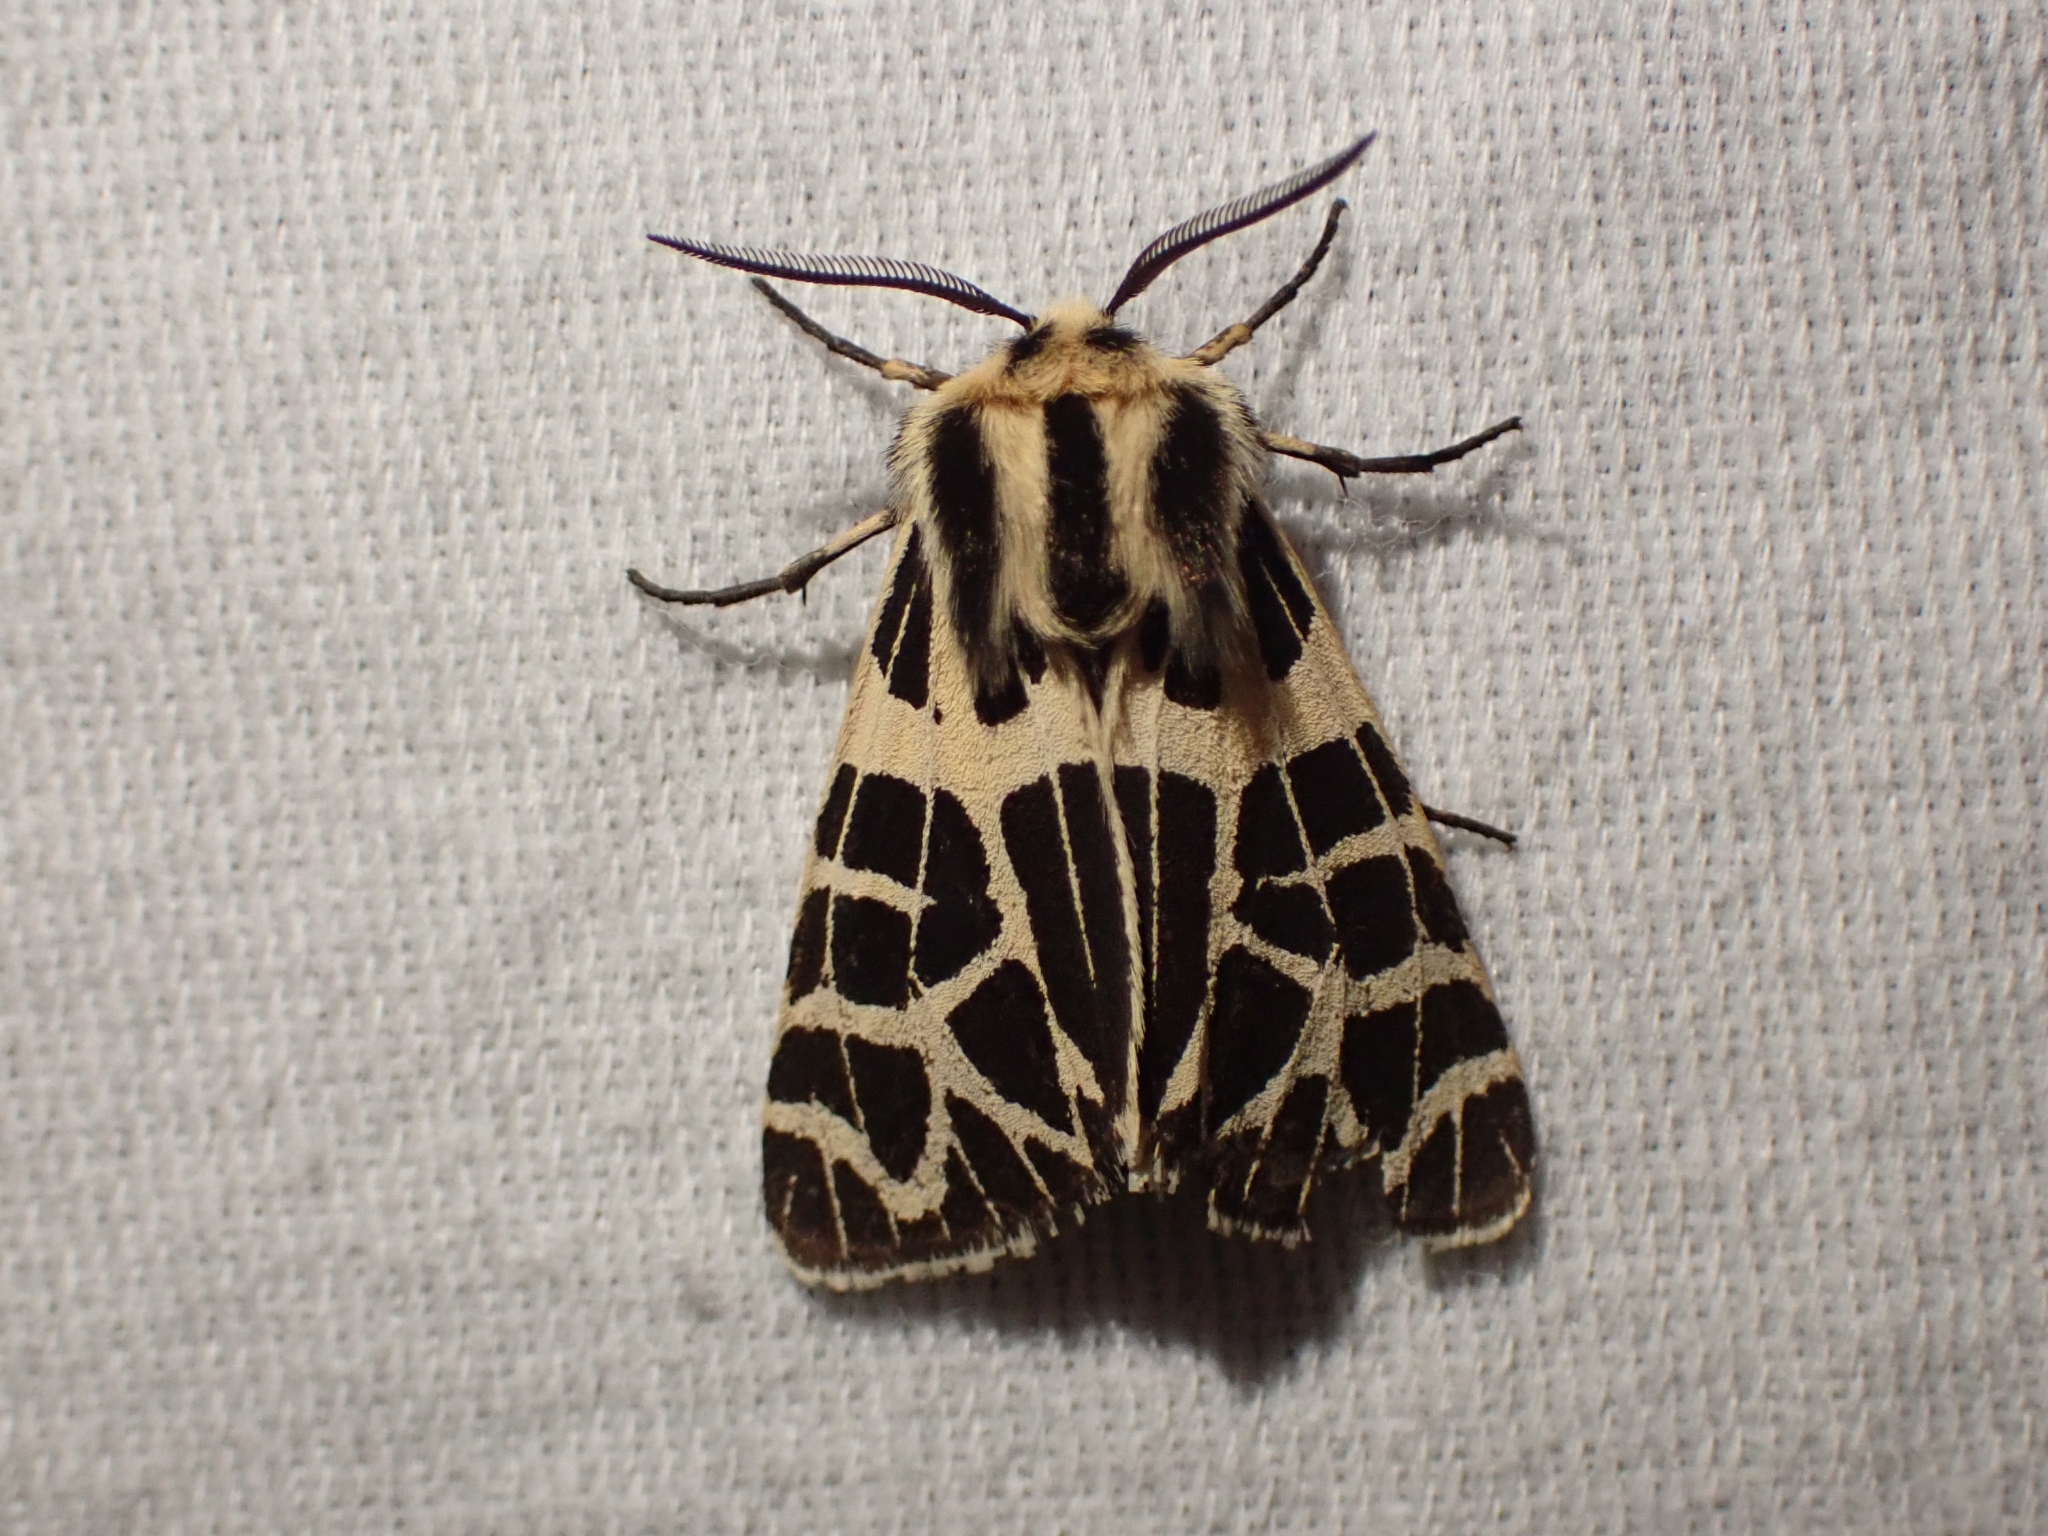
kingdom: Animalia
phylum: Arthropoda
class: Insecta
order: Lepidoptera
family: Erebidae
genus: Apantesis
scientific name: Apantesis
